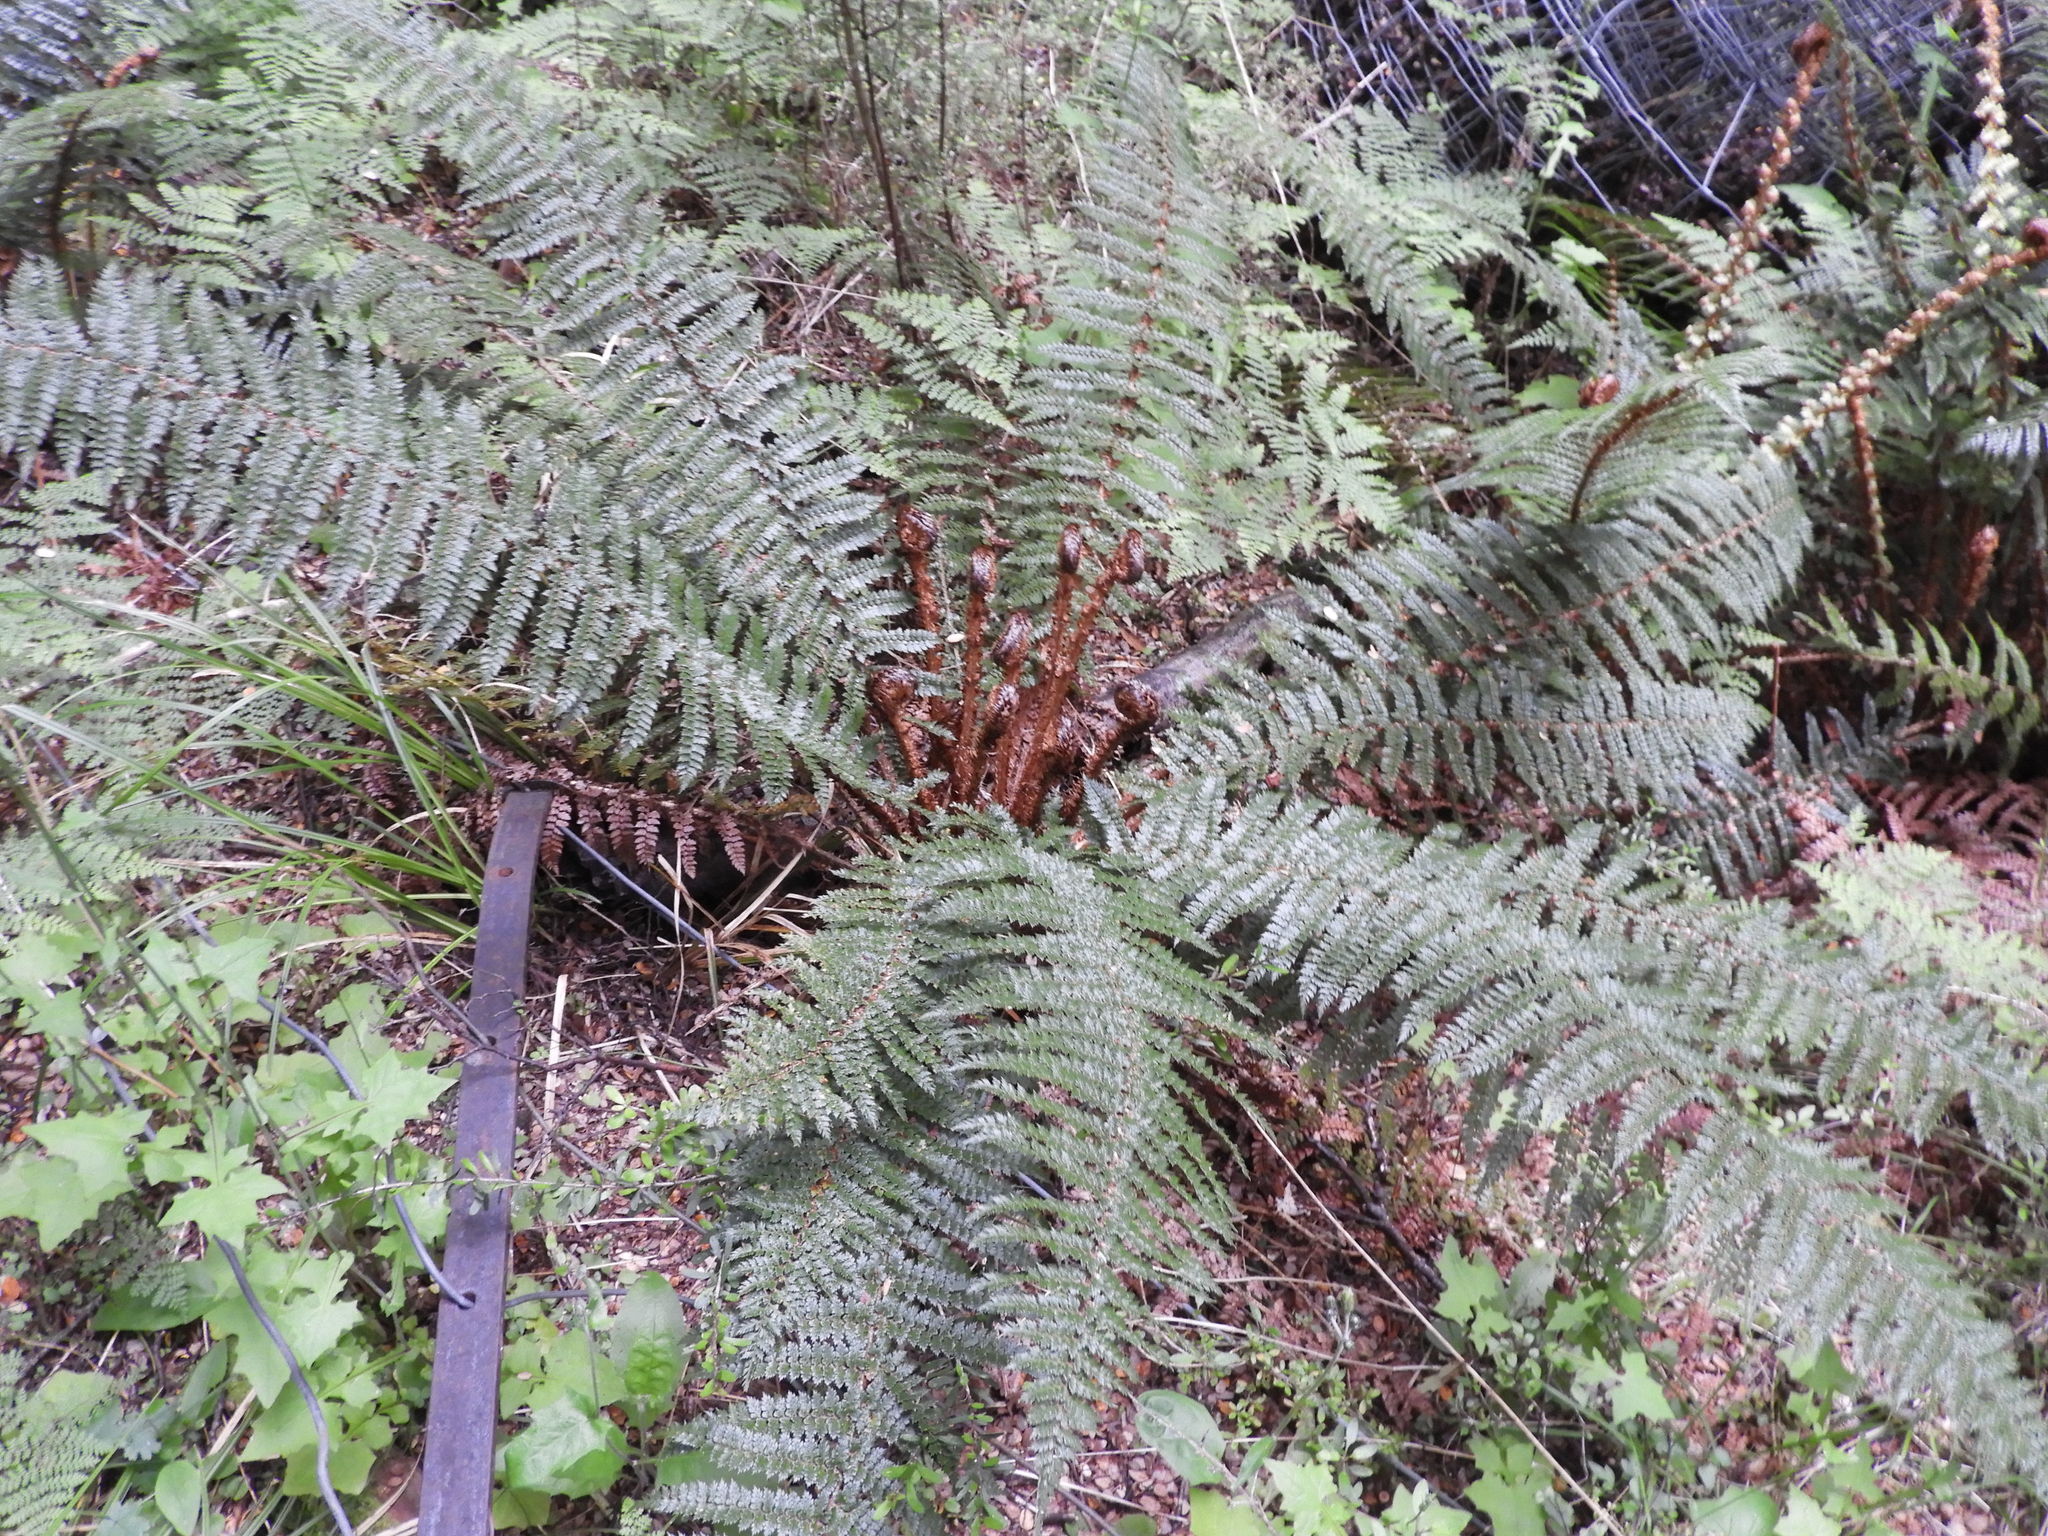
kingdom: Plantae
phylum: Tracheophyta
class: Polypodiopsida
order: Polypodiales
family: Dryopteridaceae
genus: Polystichum
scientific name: Polystichum vestitum
